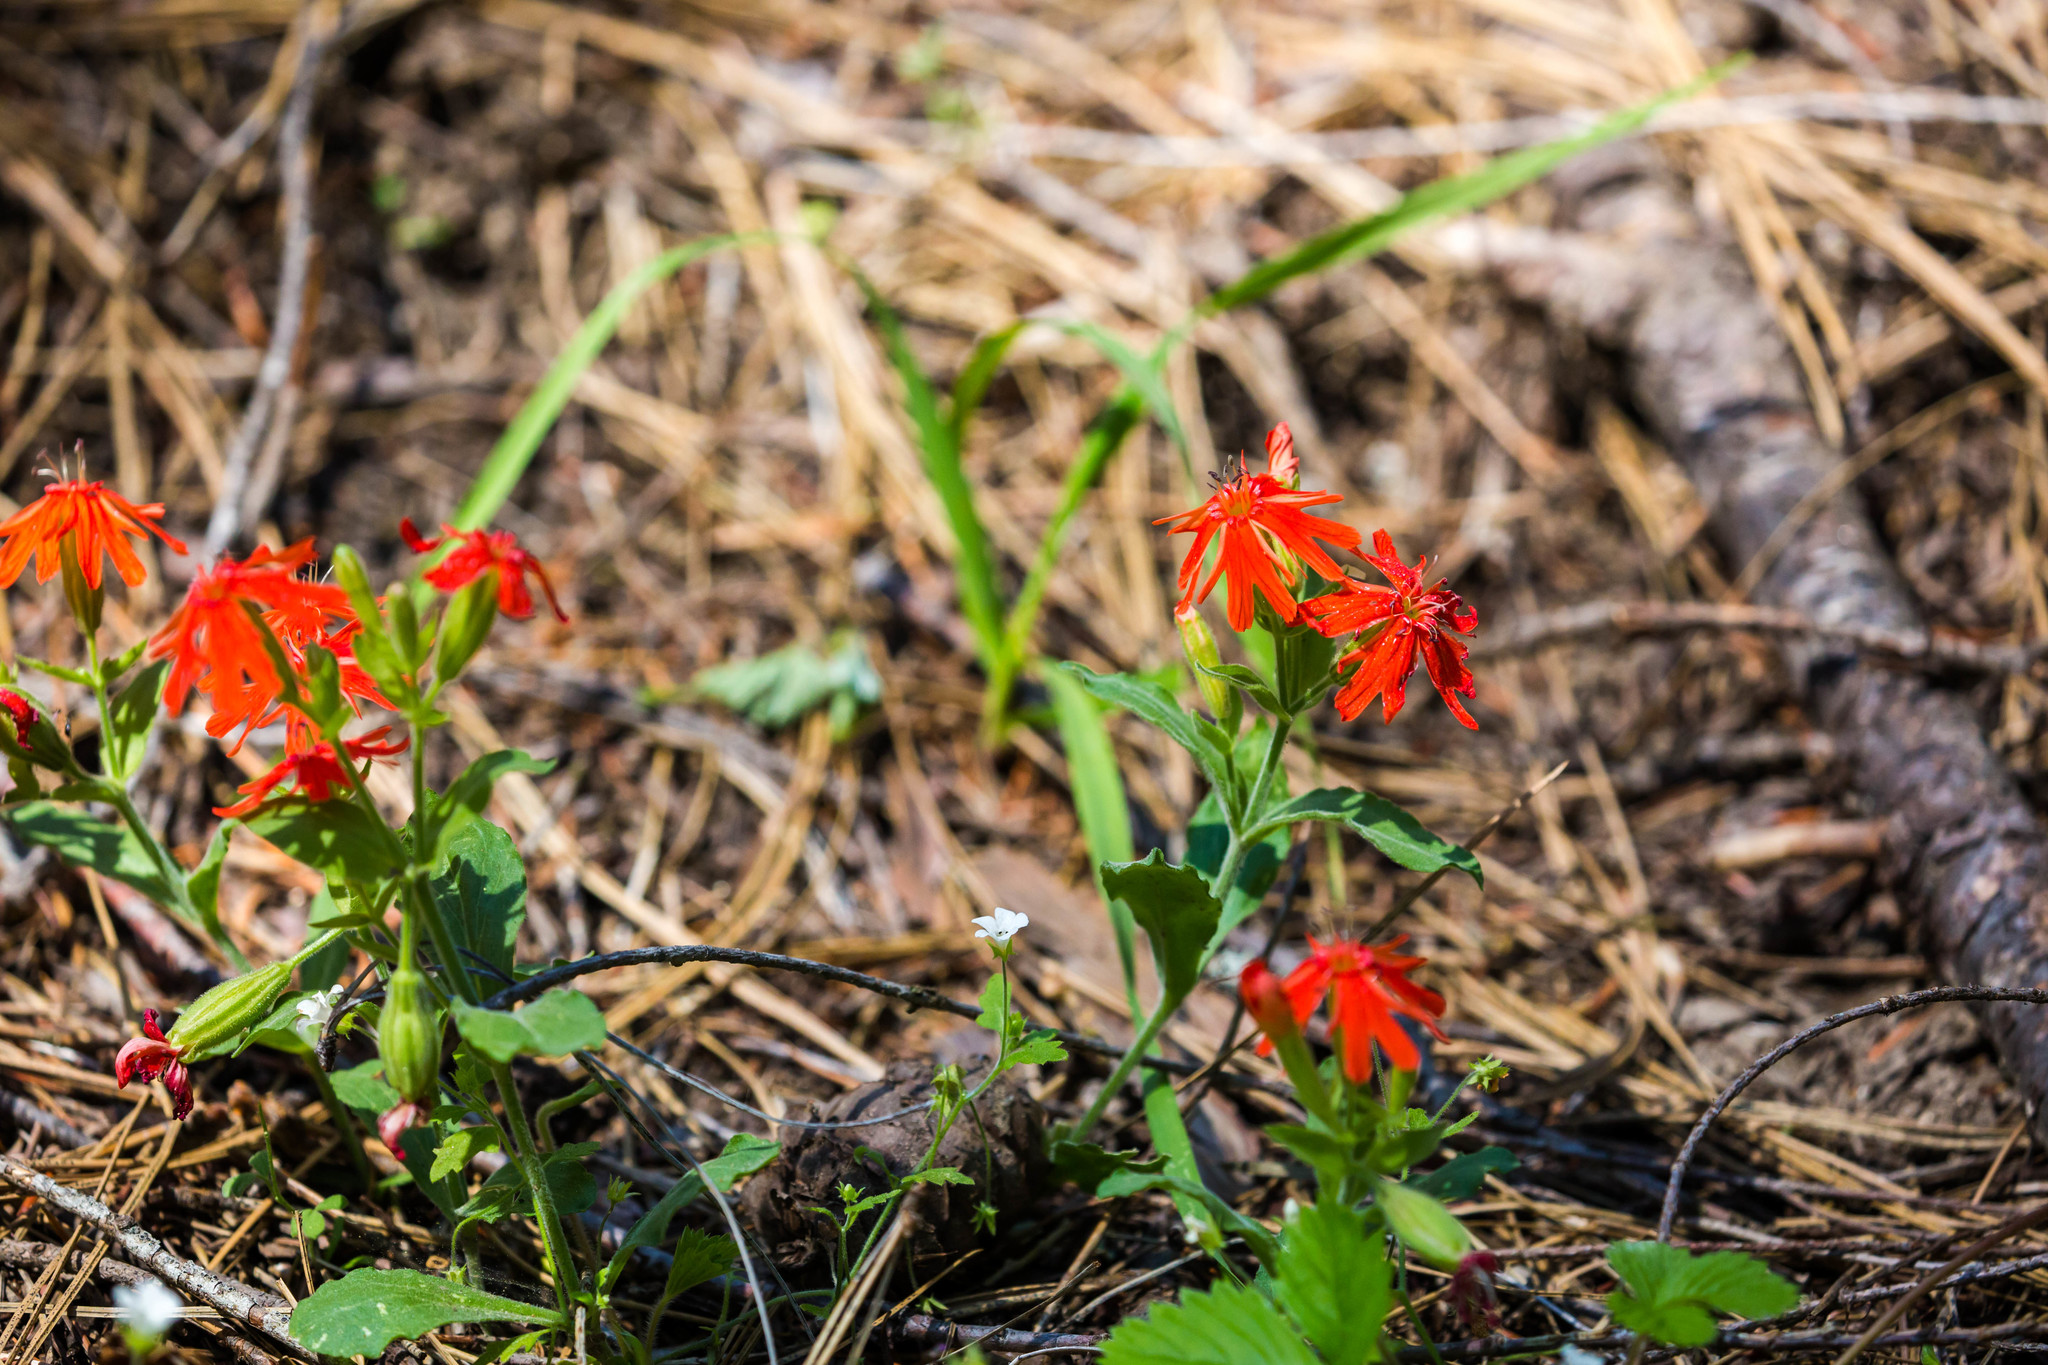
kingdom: Plantae
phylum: Tracheophyta
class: Magnoliopsida
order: Caryophyllales
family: Caryophyllaceae
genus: Silene
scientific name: Silene laciniata
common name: Indian-pink
